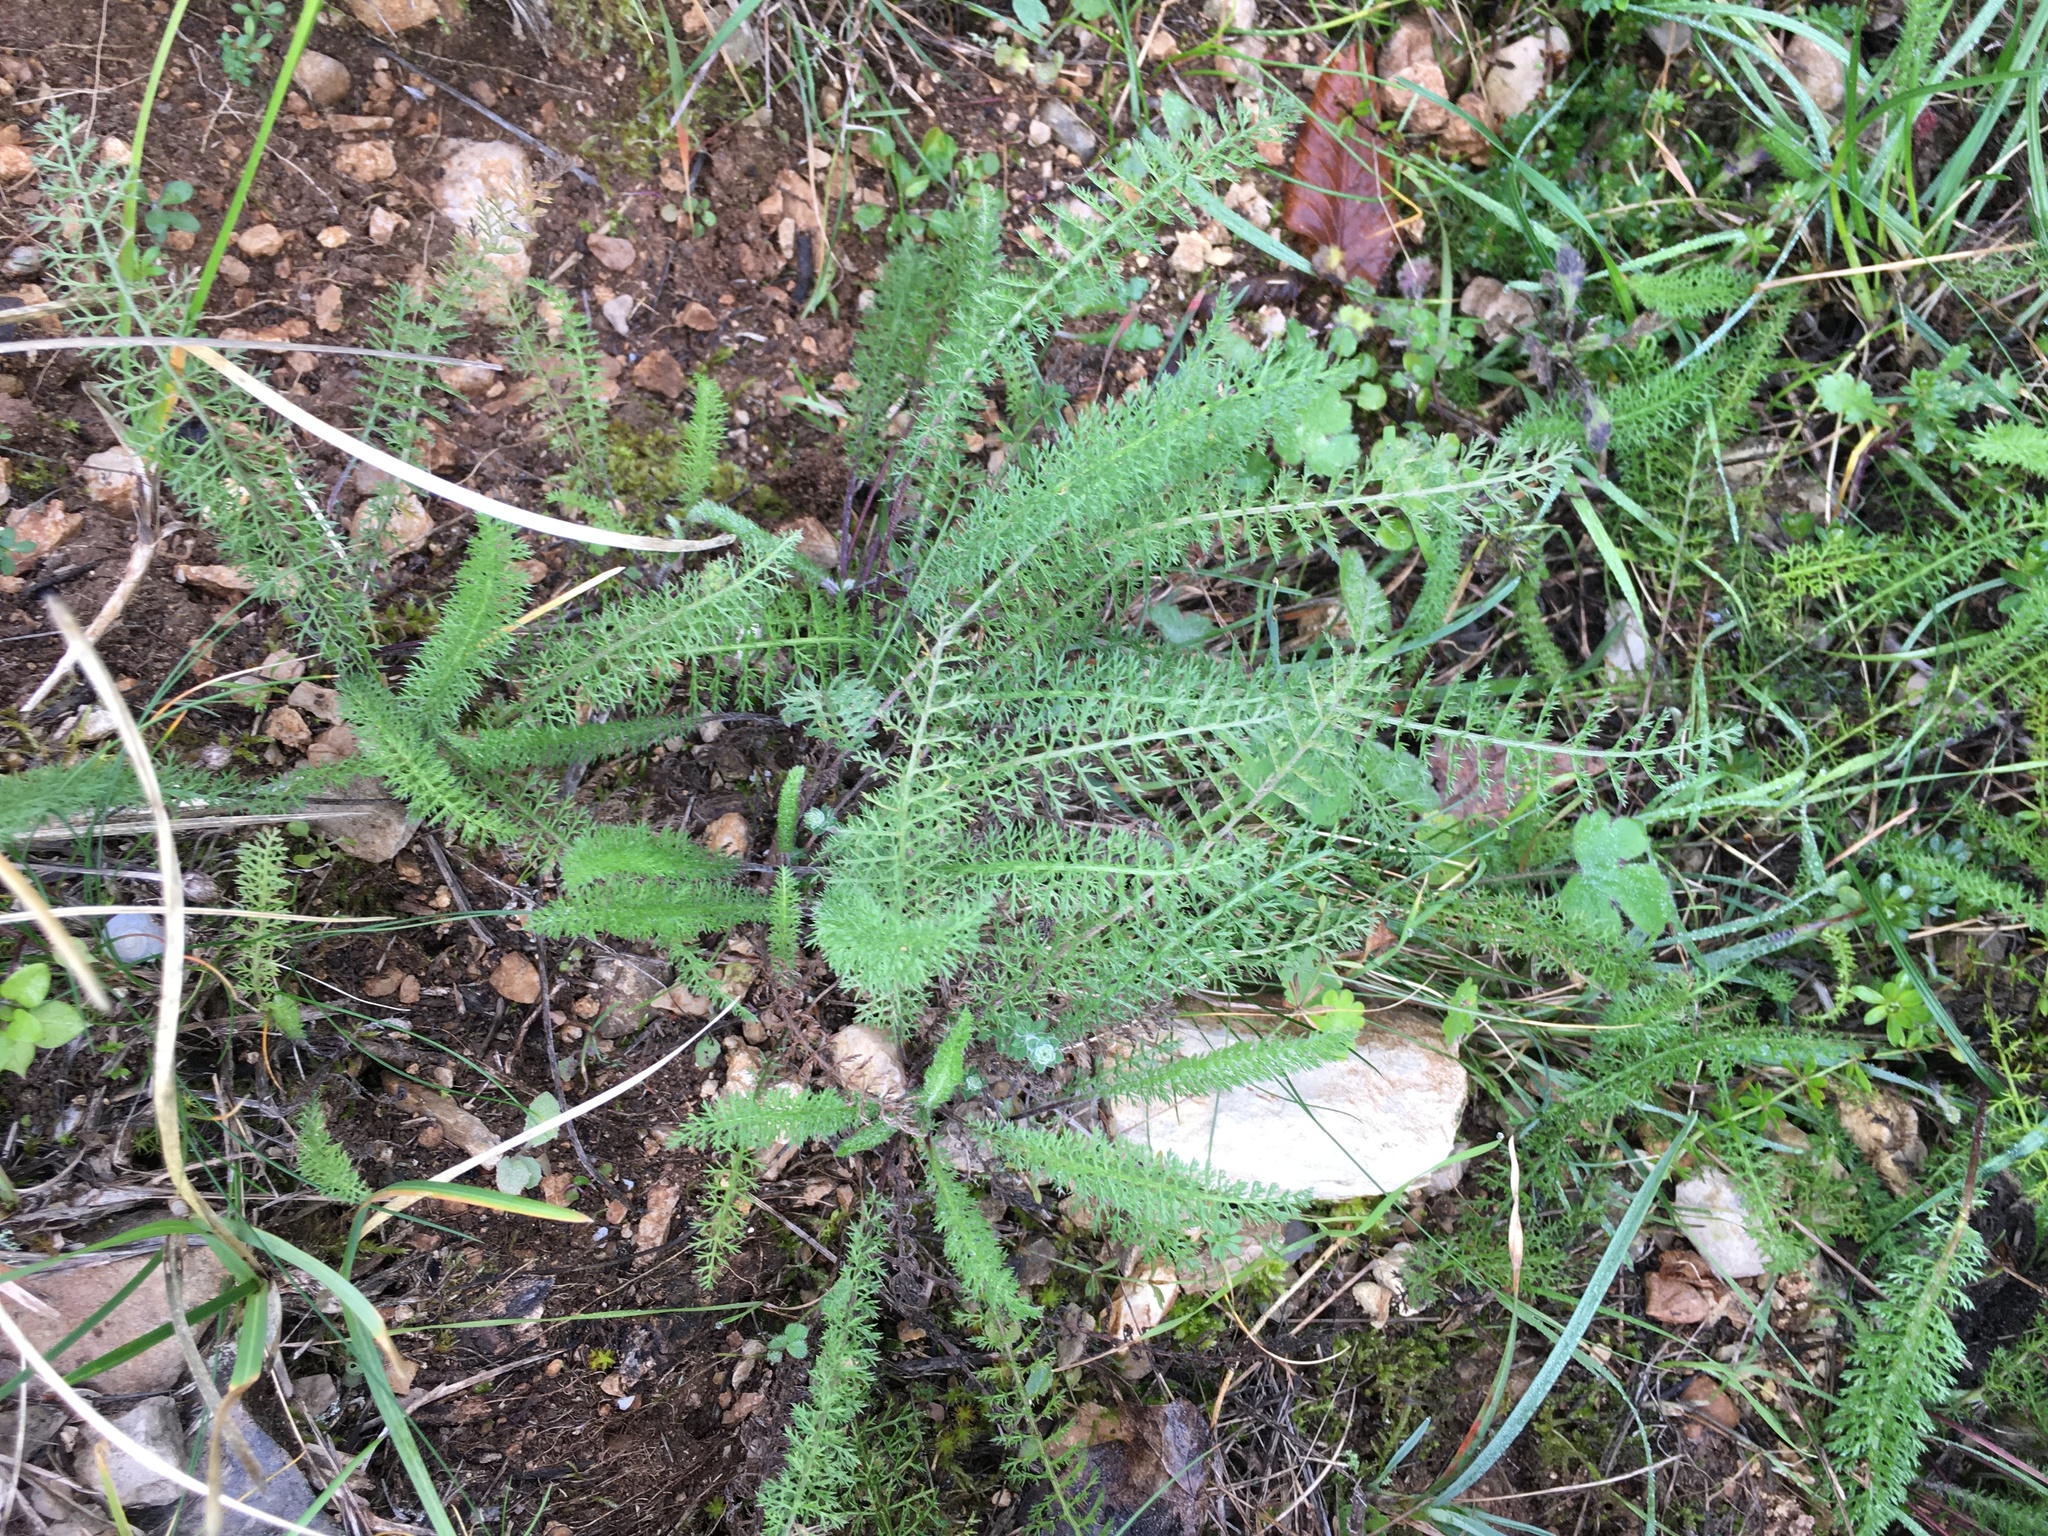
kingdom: Plantae
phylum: Tracheophyta
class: Magnoliopsida
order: Asterales
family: Asteraceae
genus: Achillea
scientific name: Achillea millefolium
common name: Yarrow
